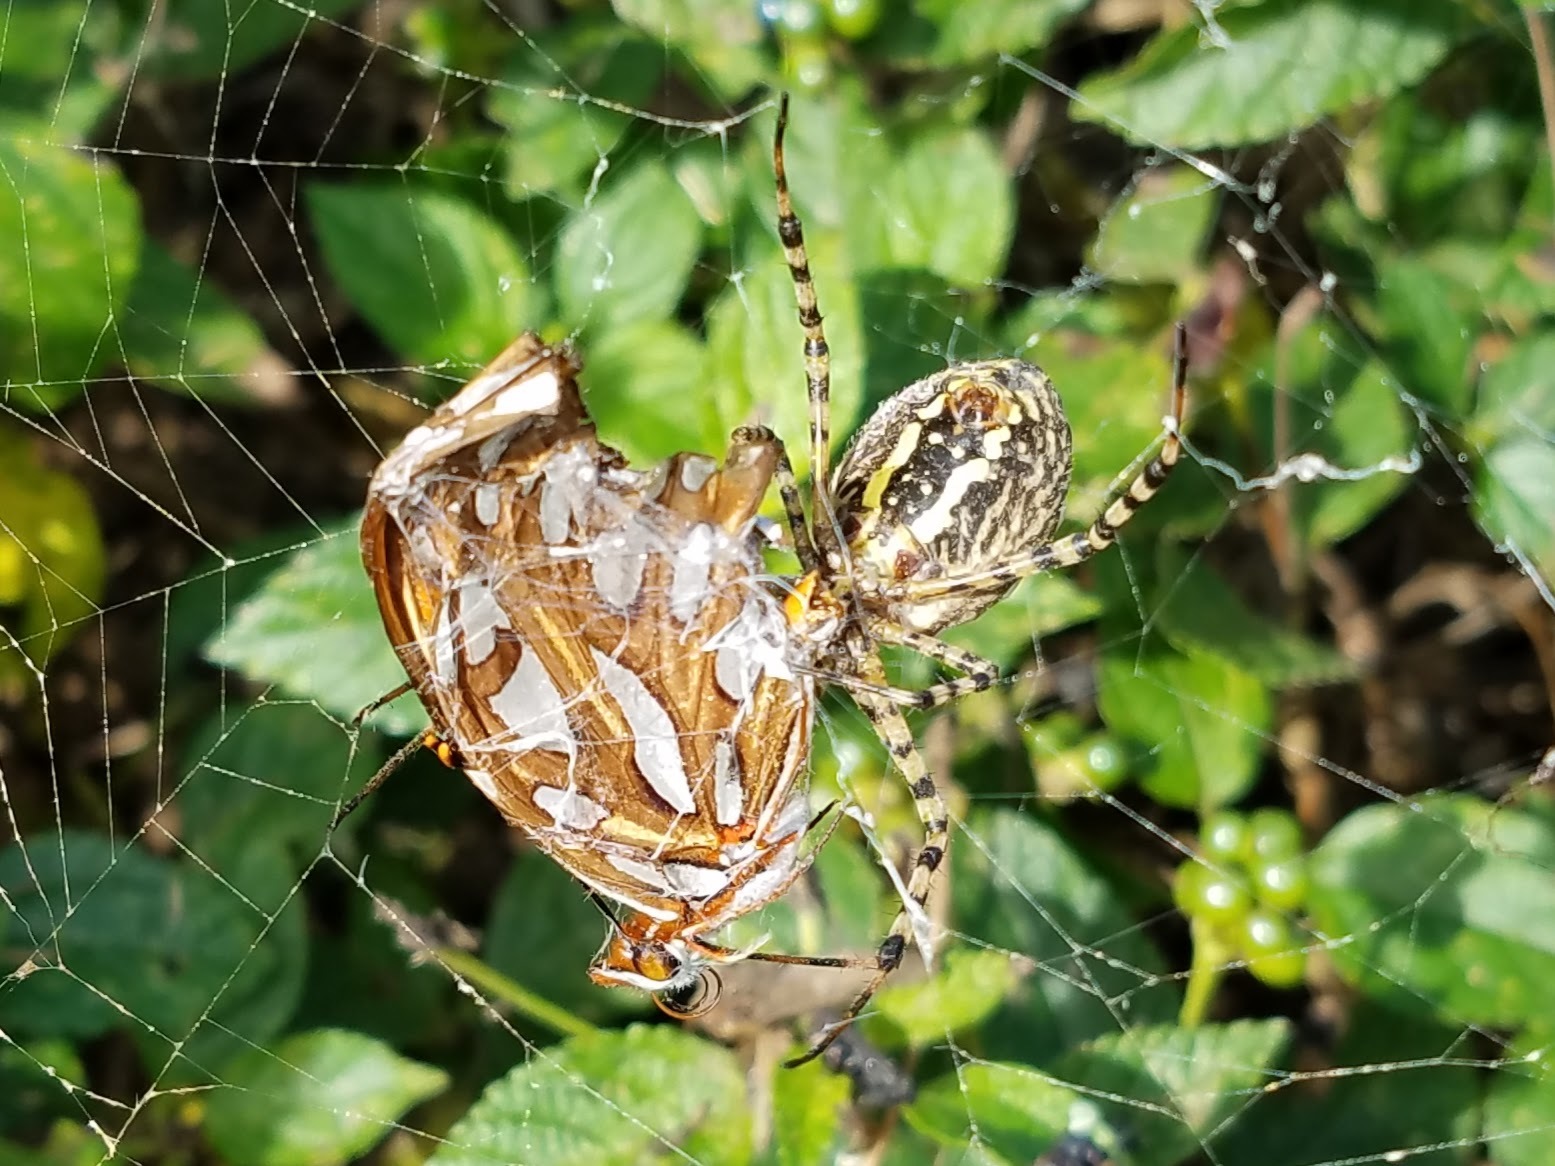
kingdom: Animalia
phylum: Arthropoda
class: Arachnida
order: Araneae
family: Araneidae
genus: Argiope
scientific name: Argiope trifasciata
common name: Banded garden spider
